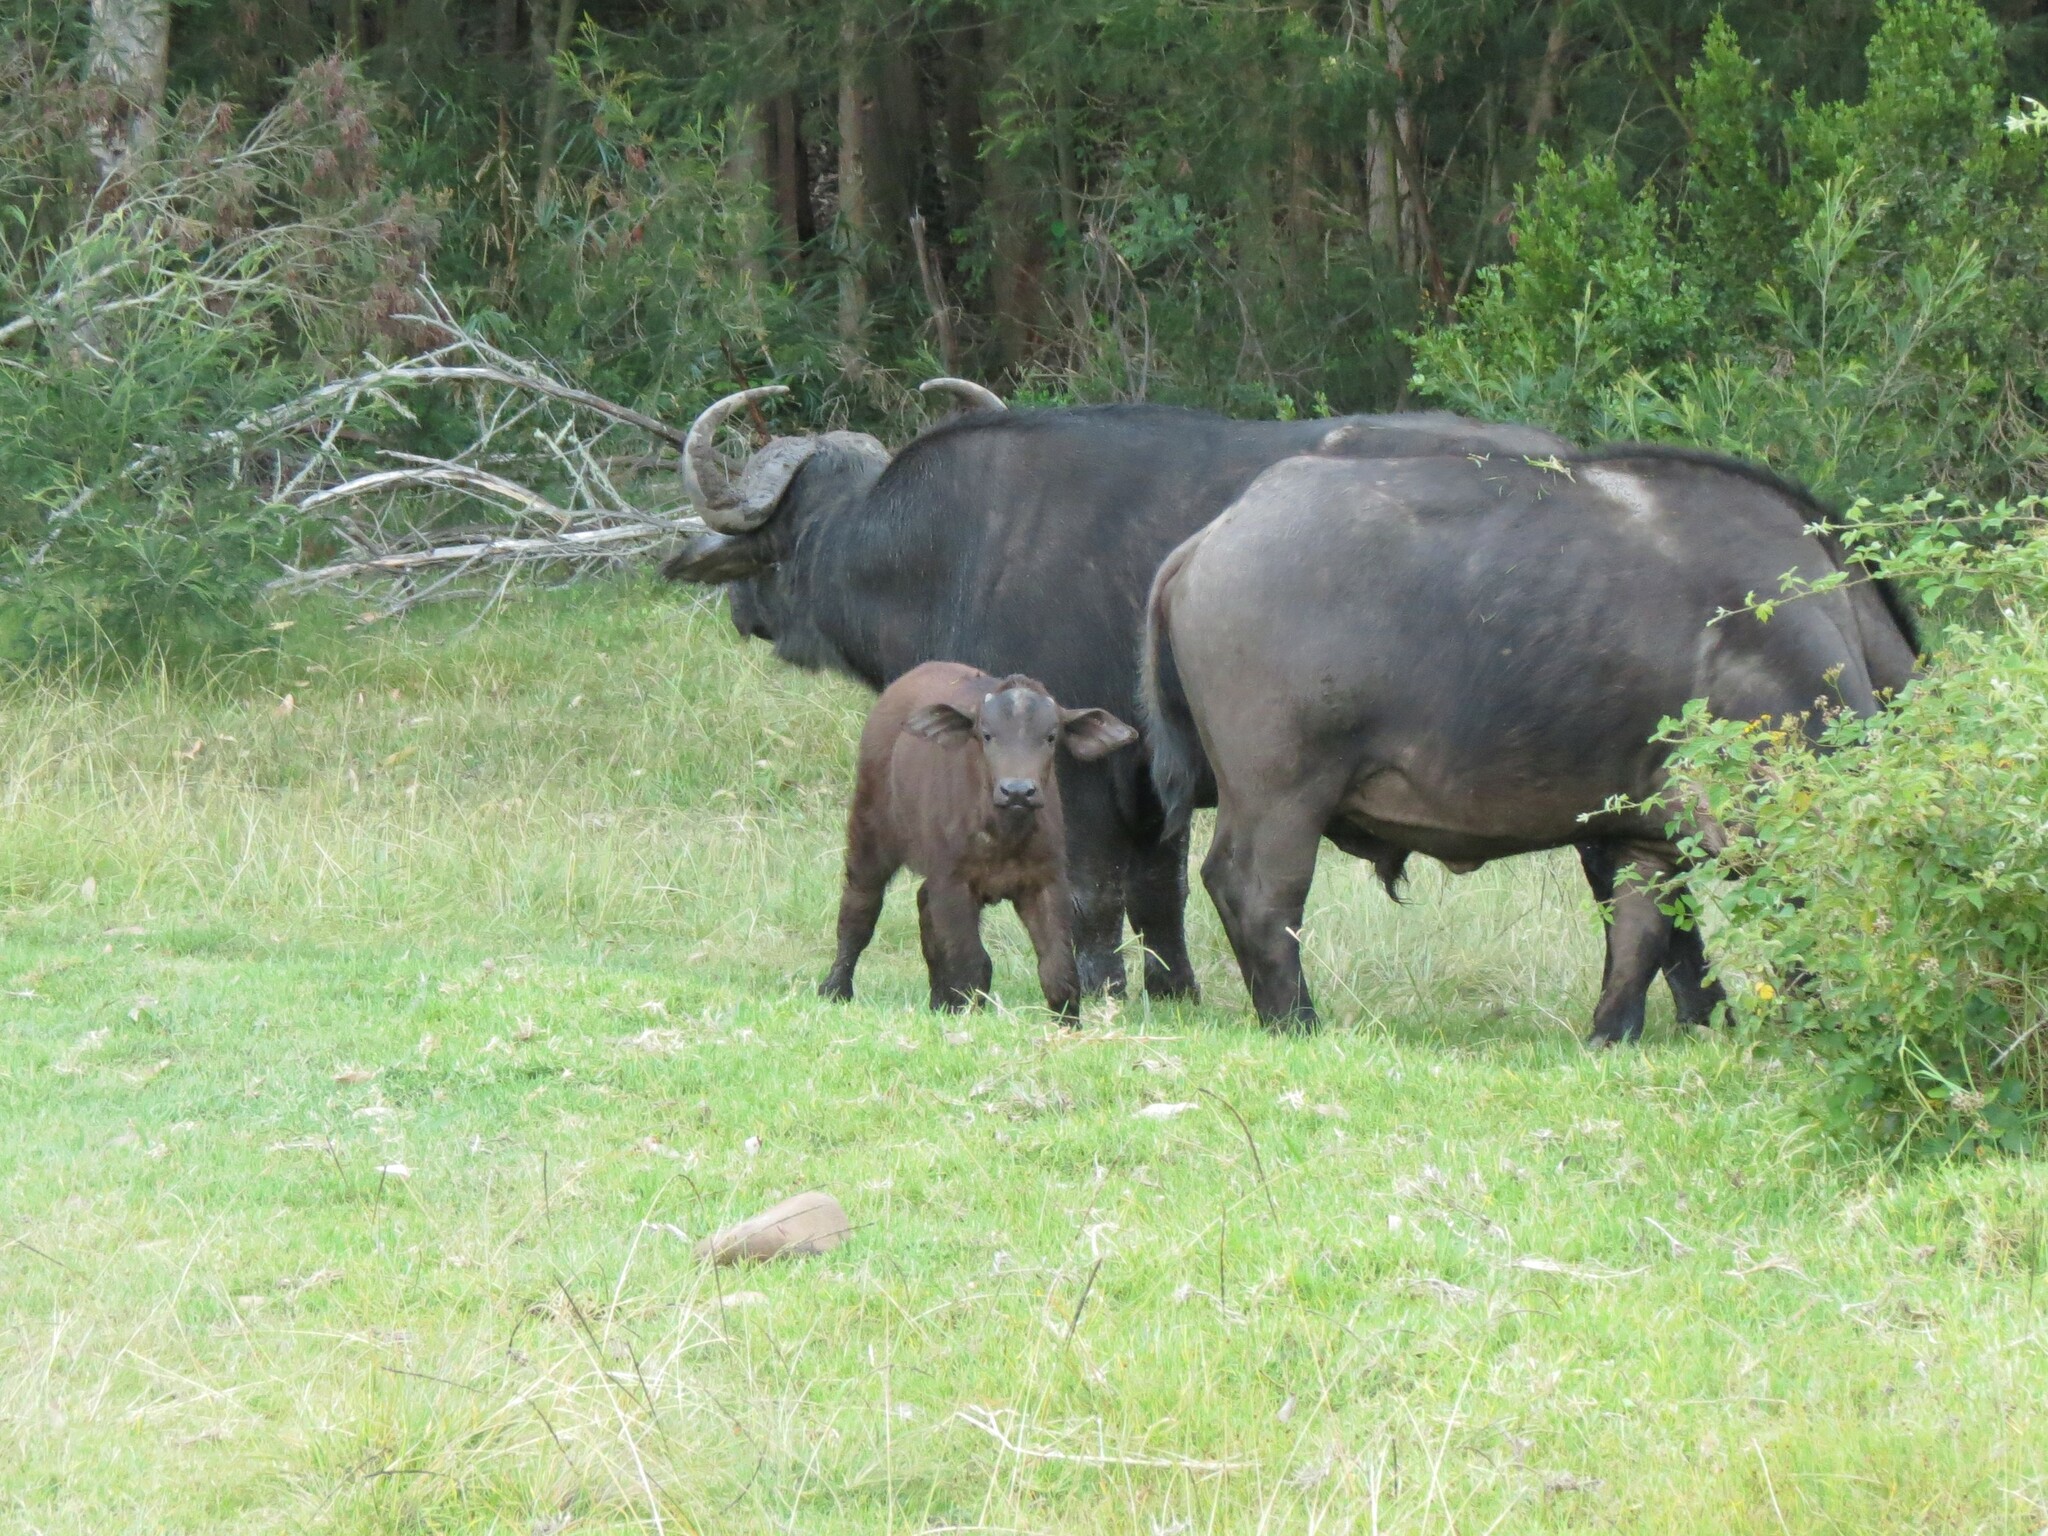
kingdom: Animalia
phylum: Chordata
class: Mammalia
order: Artiodactyla
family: Bovidae
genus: Syncerus
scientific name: Syncerus caffer
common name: African buffalo
